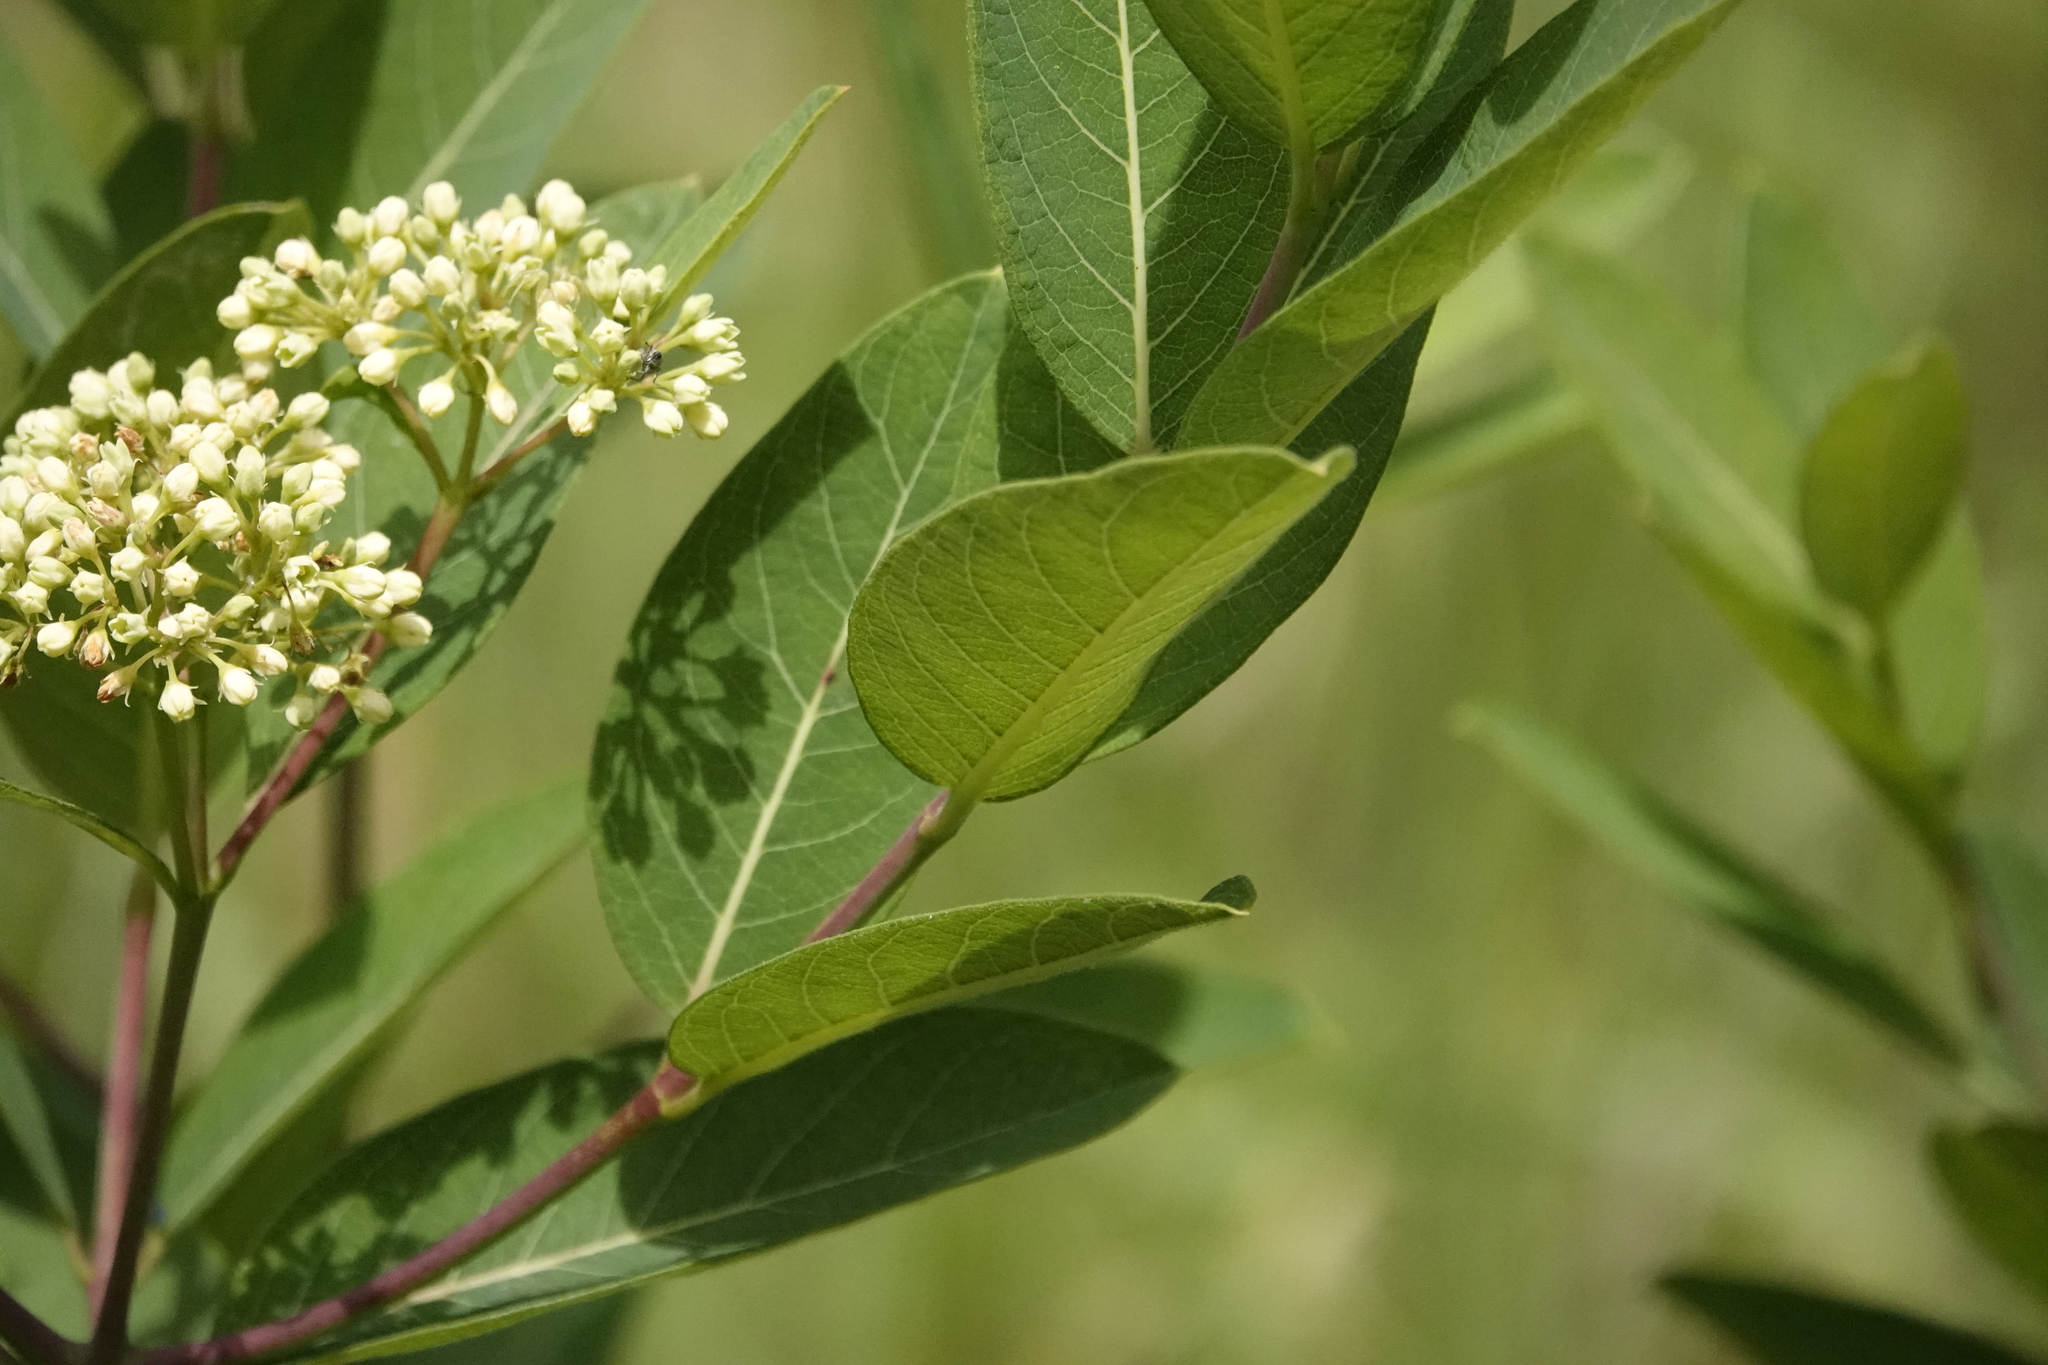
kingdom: Plantae
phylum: Tracheophyta
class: Magnoliopsida
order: Gentianales
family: Apocynaceae
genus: Apocynum
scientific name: Apocynum cannabinum
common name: Hemp dogbane
